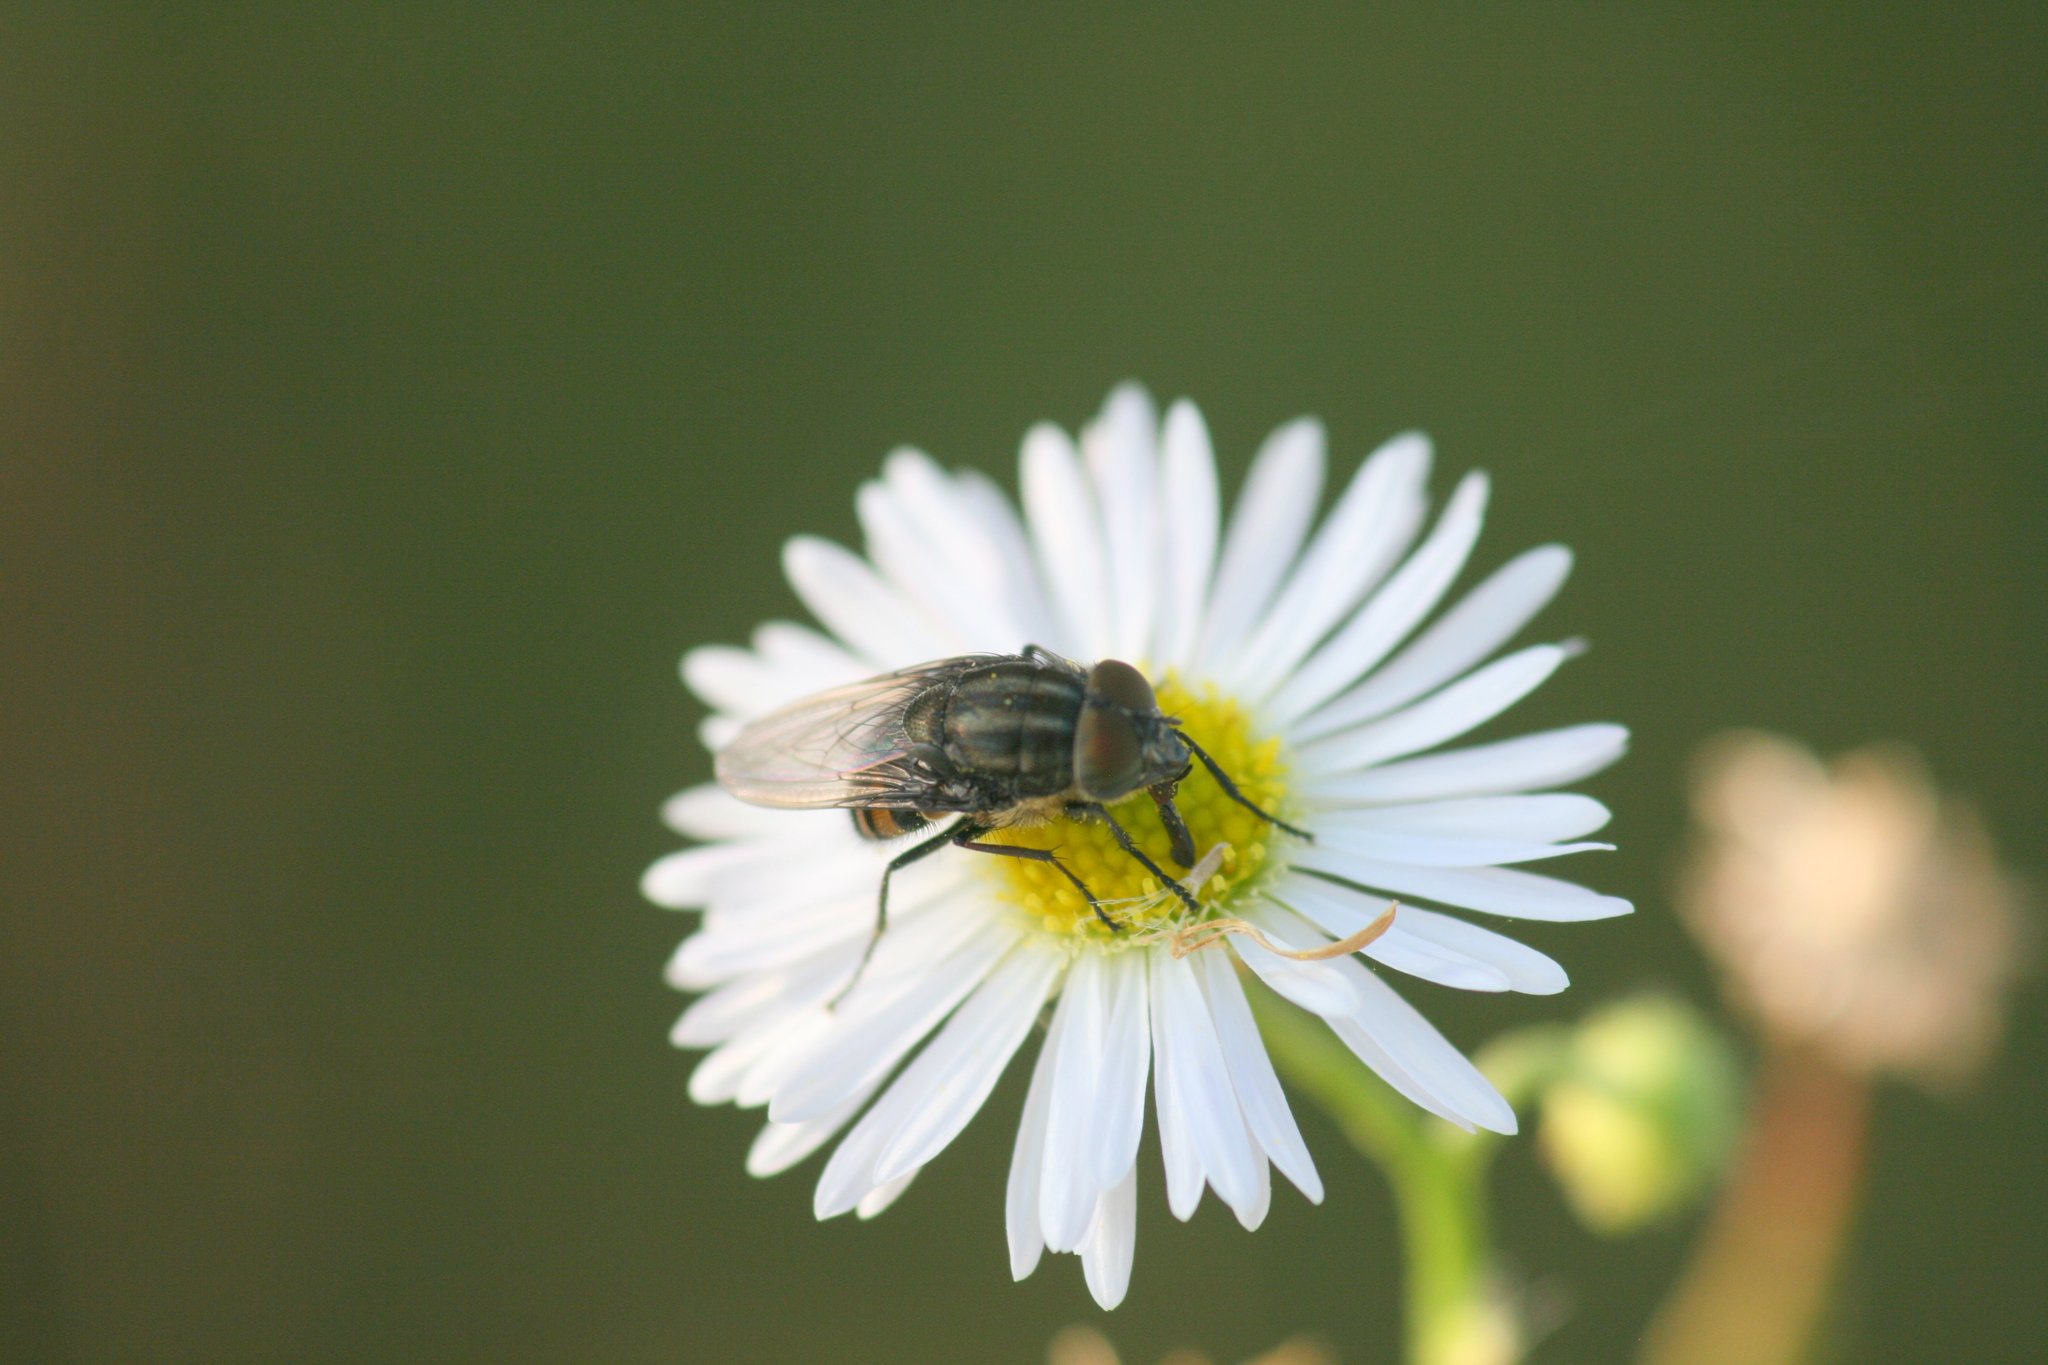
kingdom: Animalia
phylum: Arthropoda
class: Insecta
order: Diptera
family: Calliphoridae
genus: Stomorhina
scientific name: Stomorhina lunata
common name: Locust blowfly
